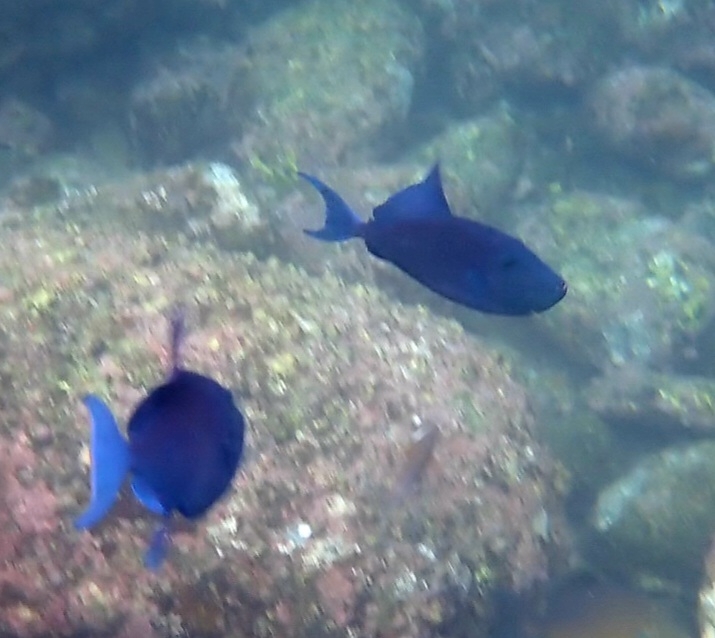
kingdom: Animalia
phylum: Chordata
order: Tetraodontiformes
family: Balistidae
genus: Odonus
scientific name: Odonus niger
